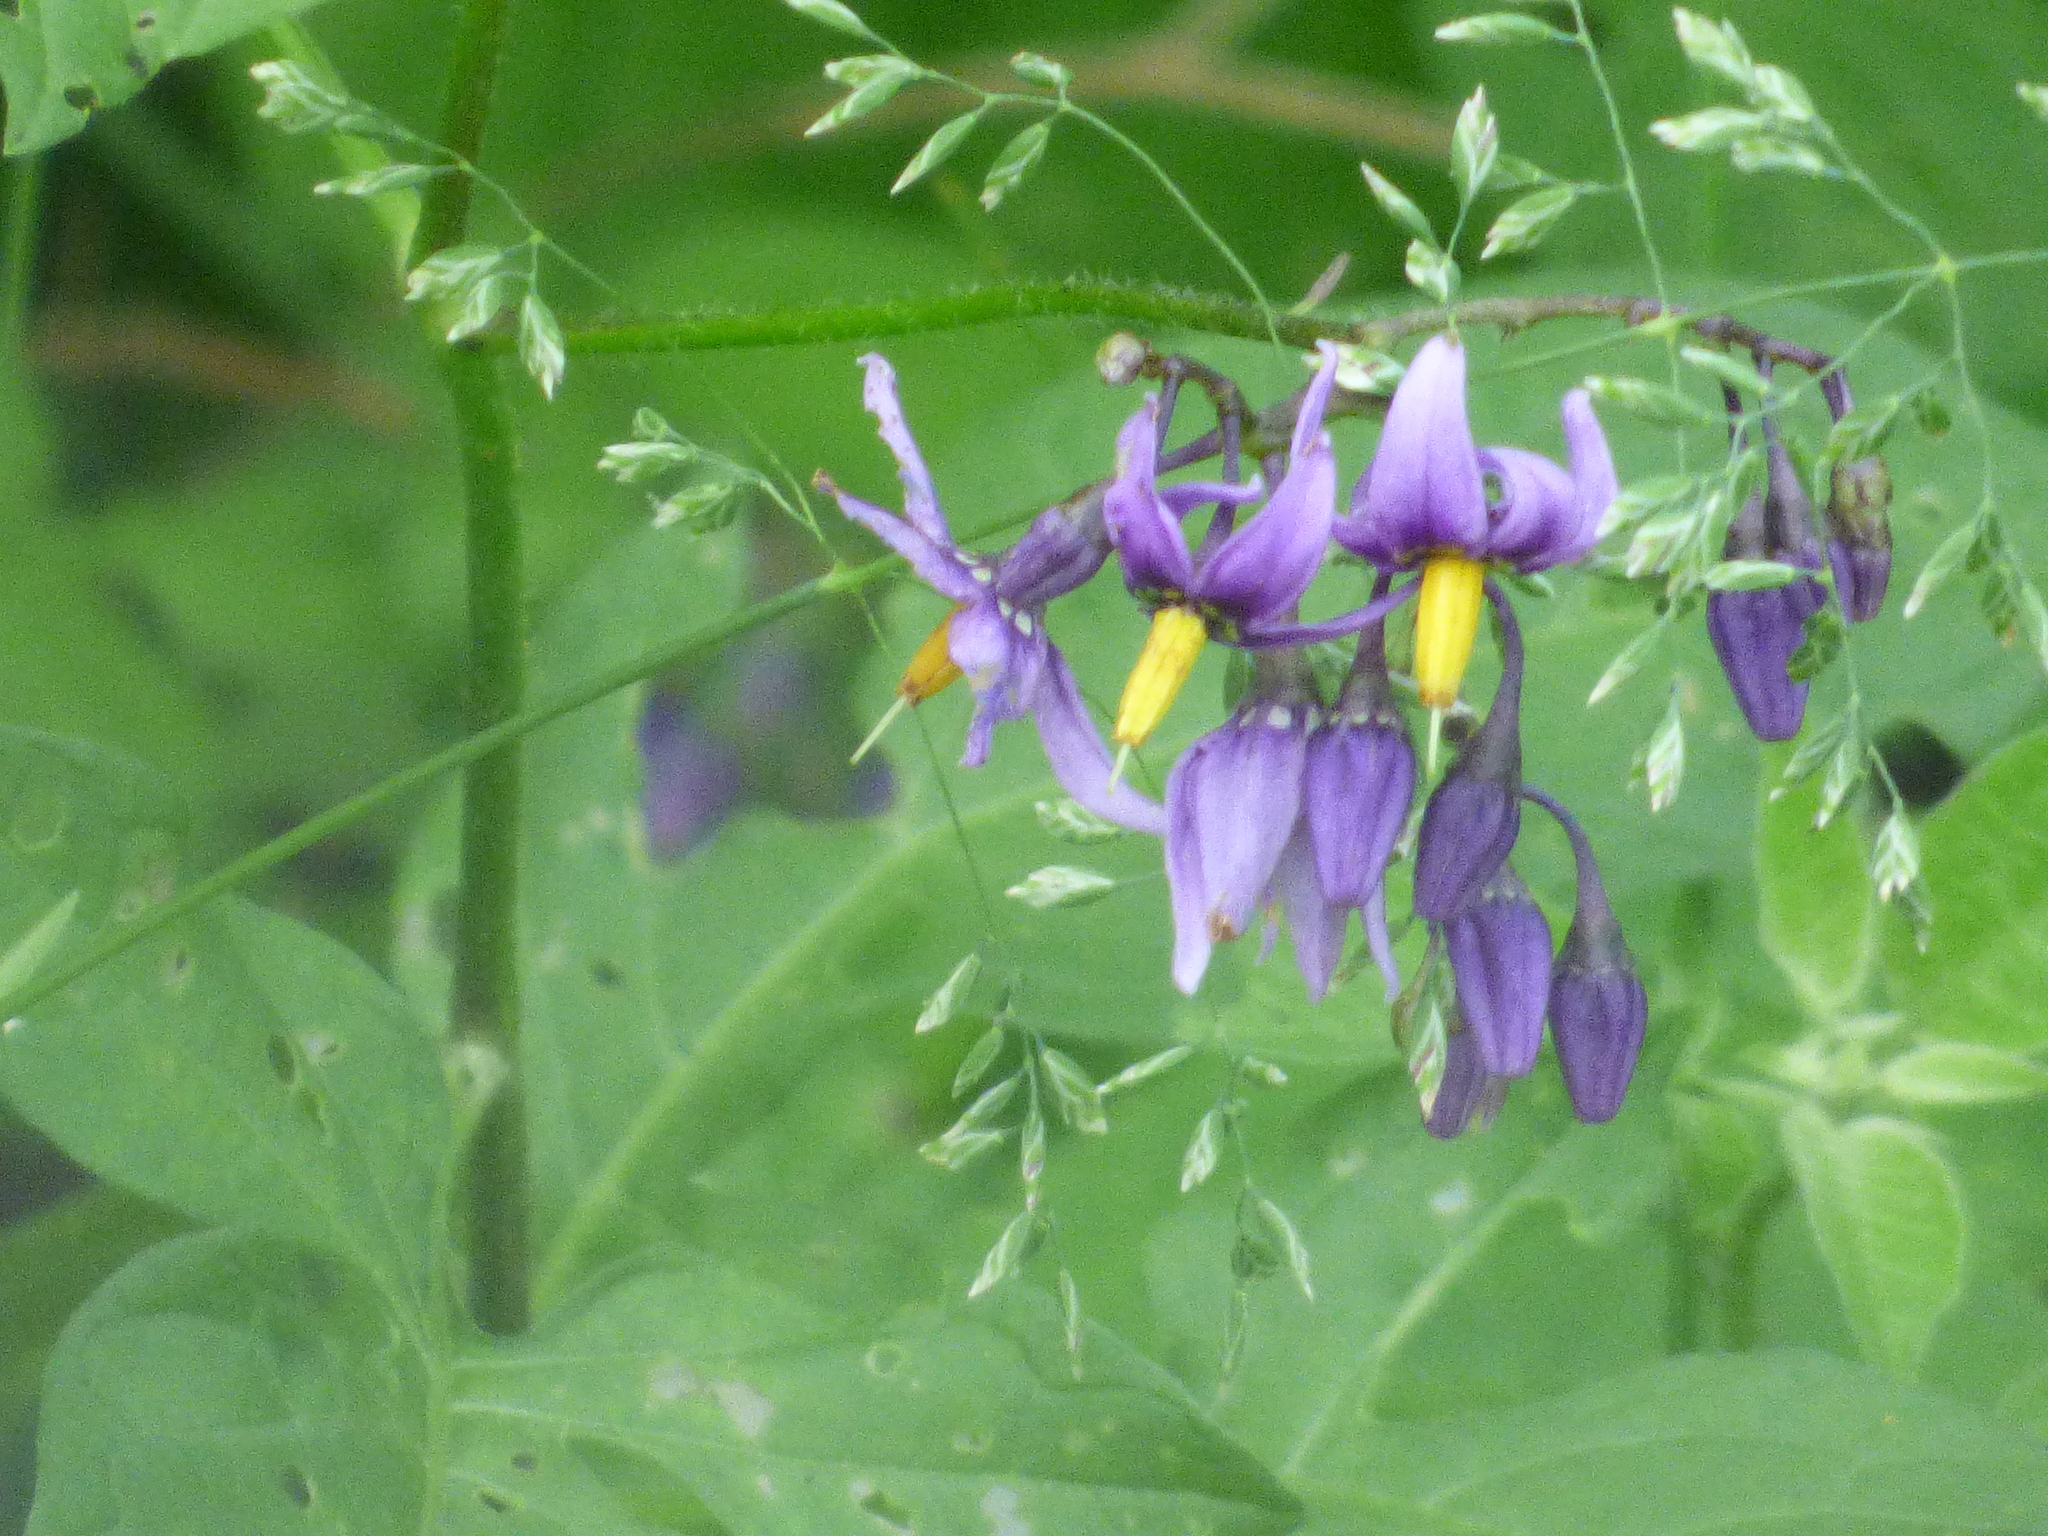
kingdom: Plantae
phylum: Tracheophyta
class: Magnoliopsida
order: Solanales
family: Solanaceae
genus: Solanum
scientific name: Solanum dulcamara
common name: Climbing nightshade
